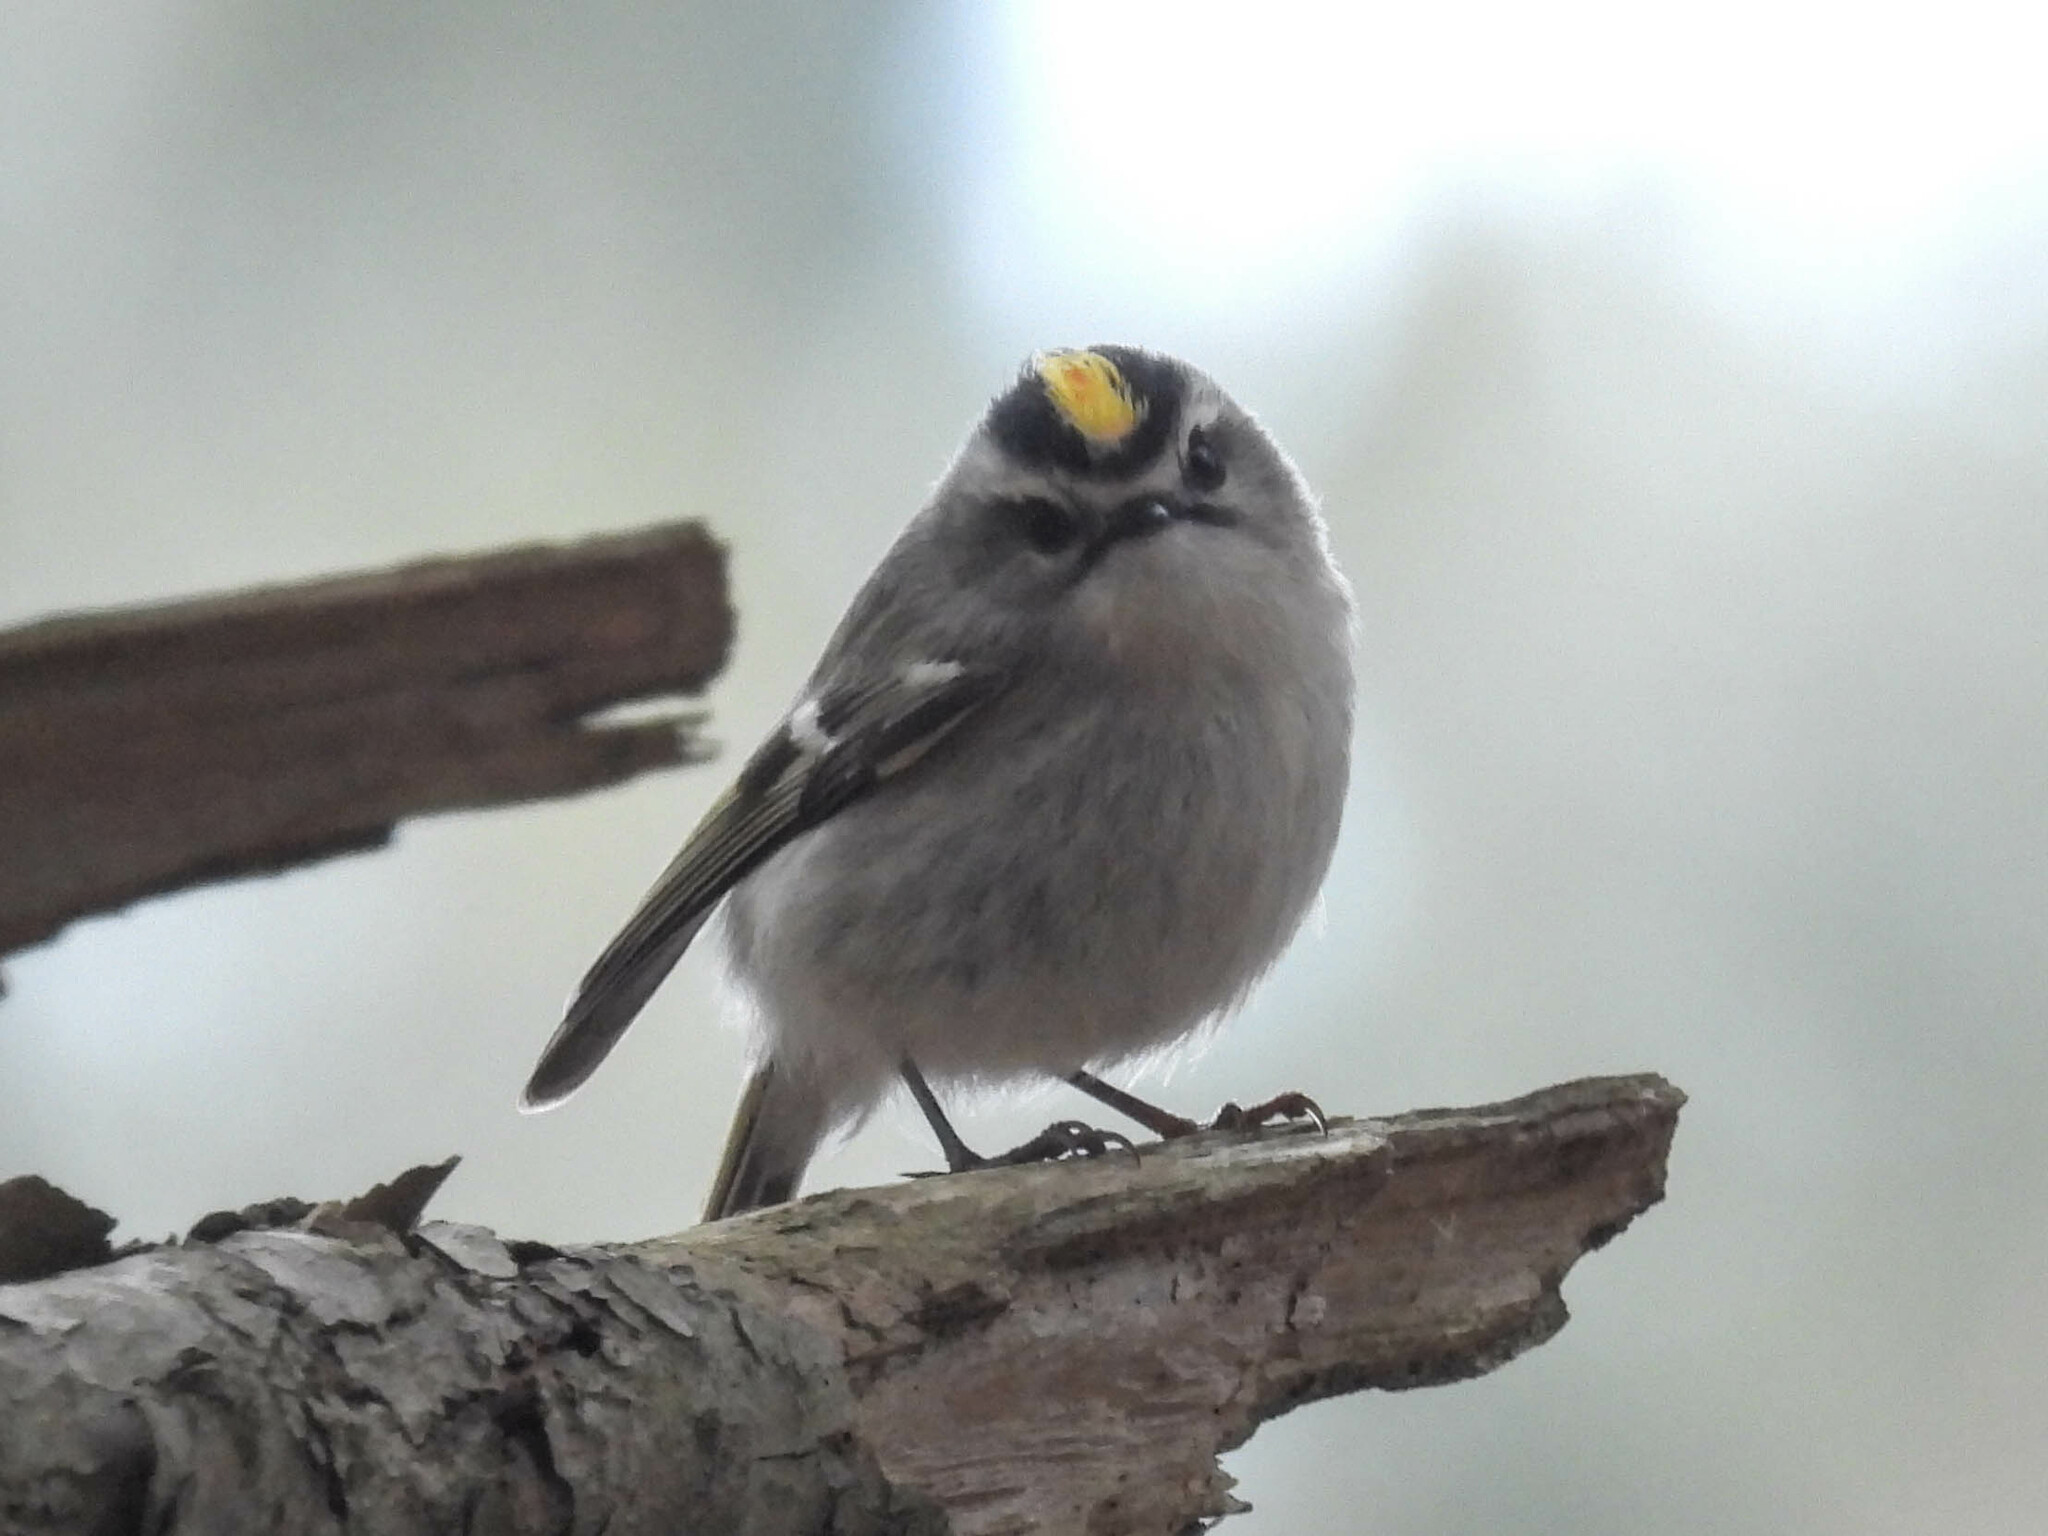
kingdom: Animalia
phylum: Chordata
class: Aves
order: Passeriformes
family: Regulidae
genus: Regulus
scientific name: Regulus satrapa
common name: Golden-crowned kinglet
